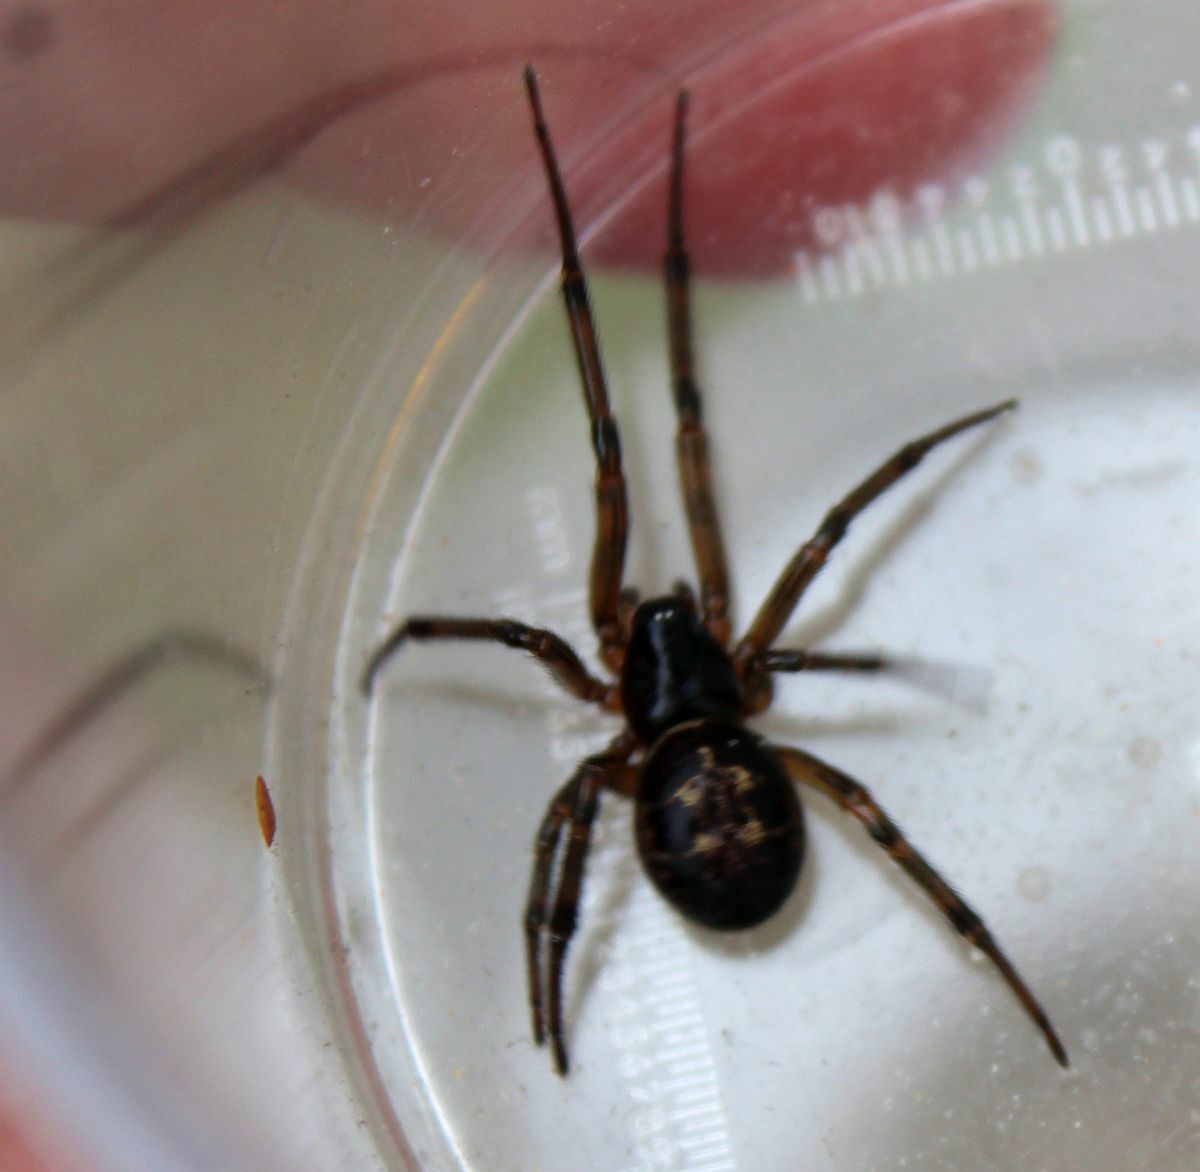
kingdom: Animalia
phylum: Arthropoda
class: Arachnida
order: Araneae
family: Theridiidae
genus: Steatoda
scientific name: Steatoda nobilis
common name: Cobweb weaver
